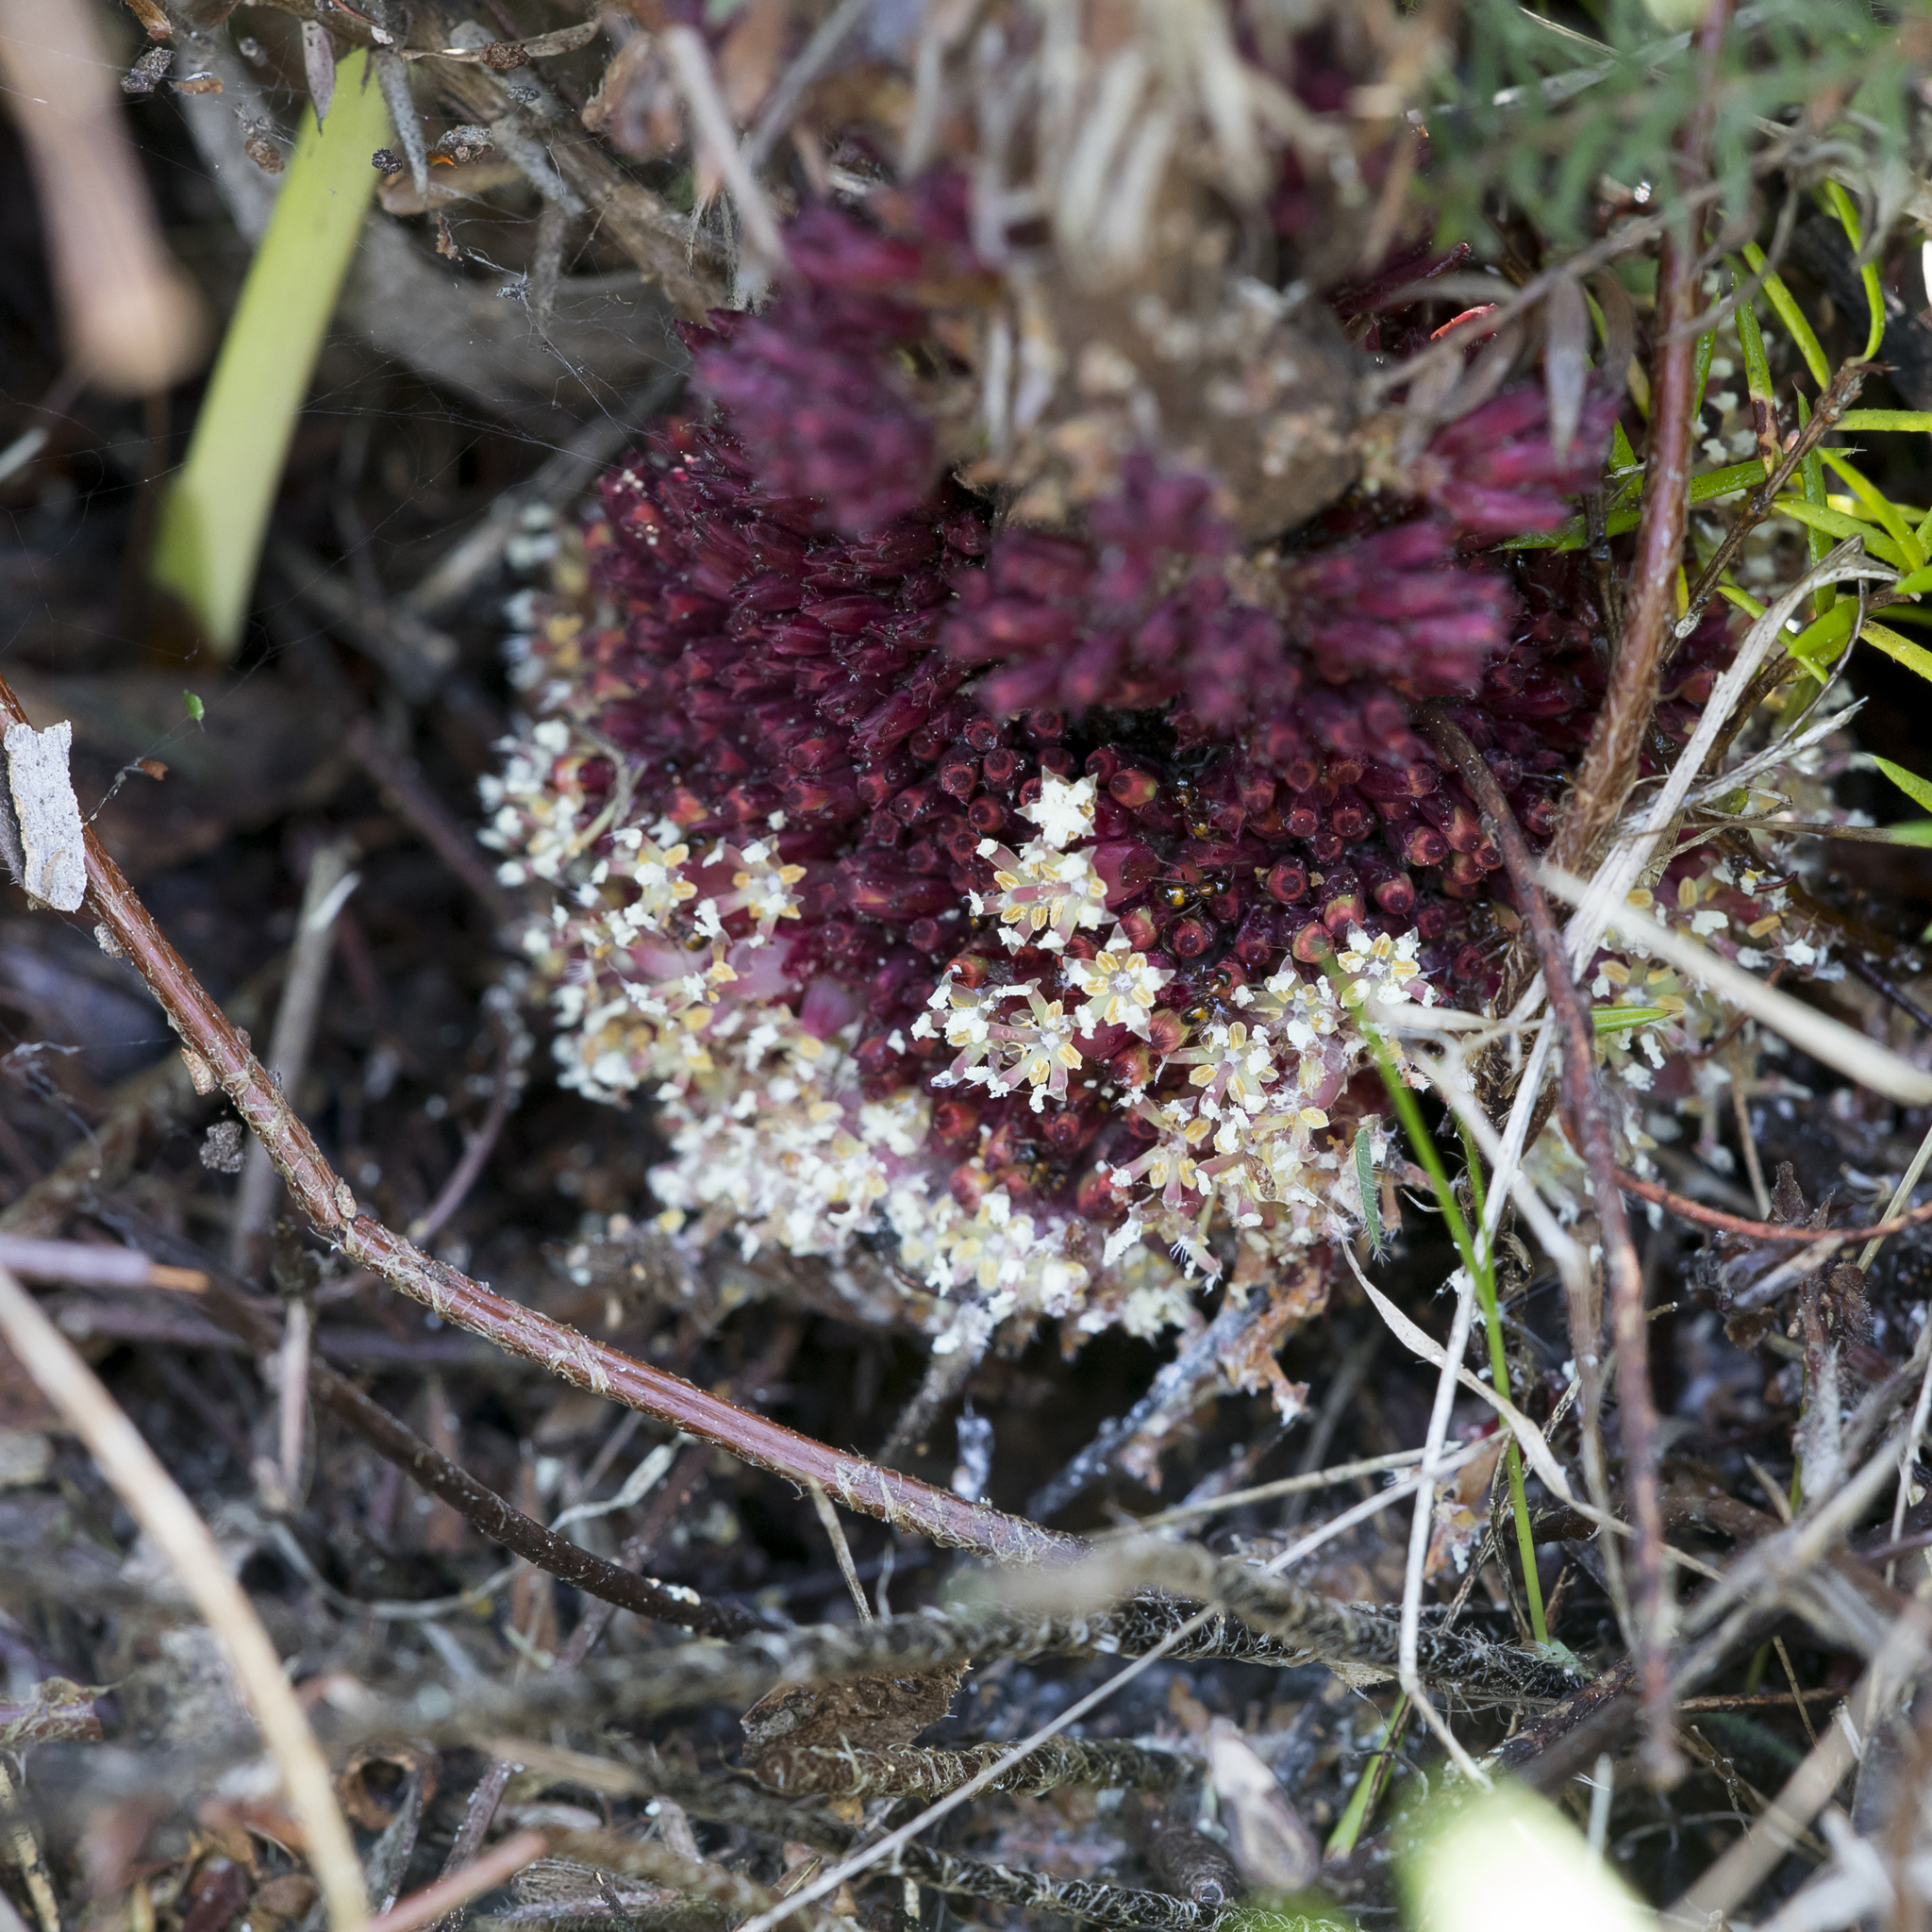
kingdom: Plantae
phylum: Tracheophyta
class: Magnoliopsida
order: Ericales
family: Ericaceae
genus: Acrotriche
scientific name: Acrotriche fasciculiflora
